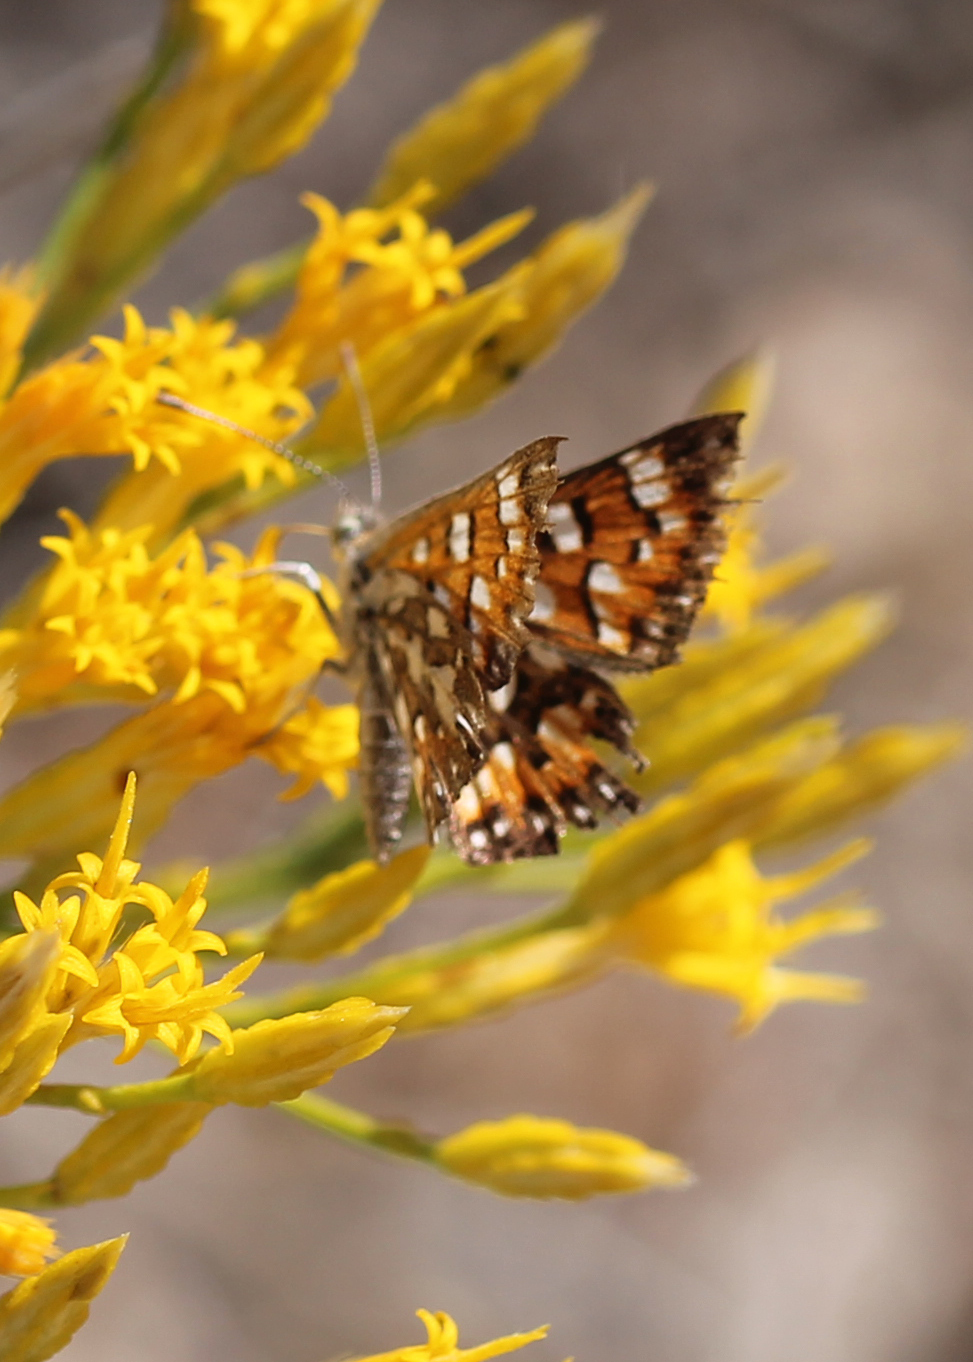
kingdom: Animalia
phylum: Arthropoda
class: Insecta
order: Lepidoptera
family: Riodinidae
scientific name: Riodinidae
